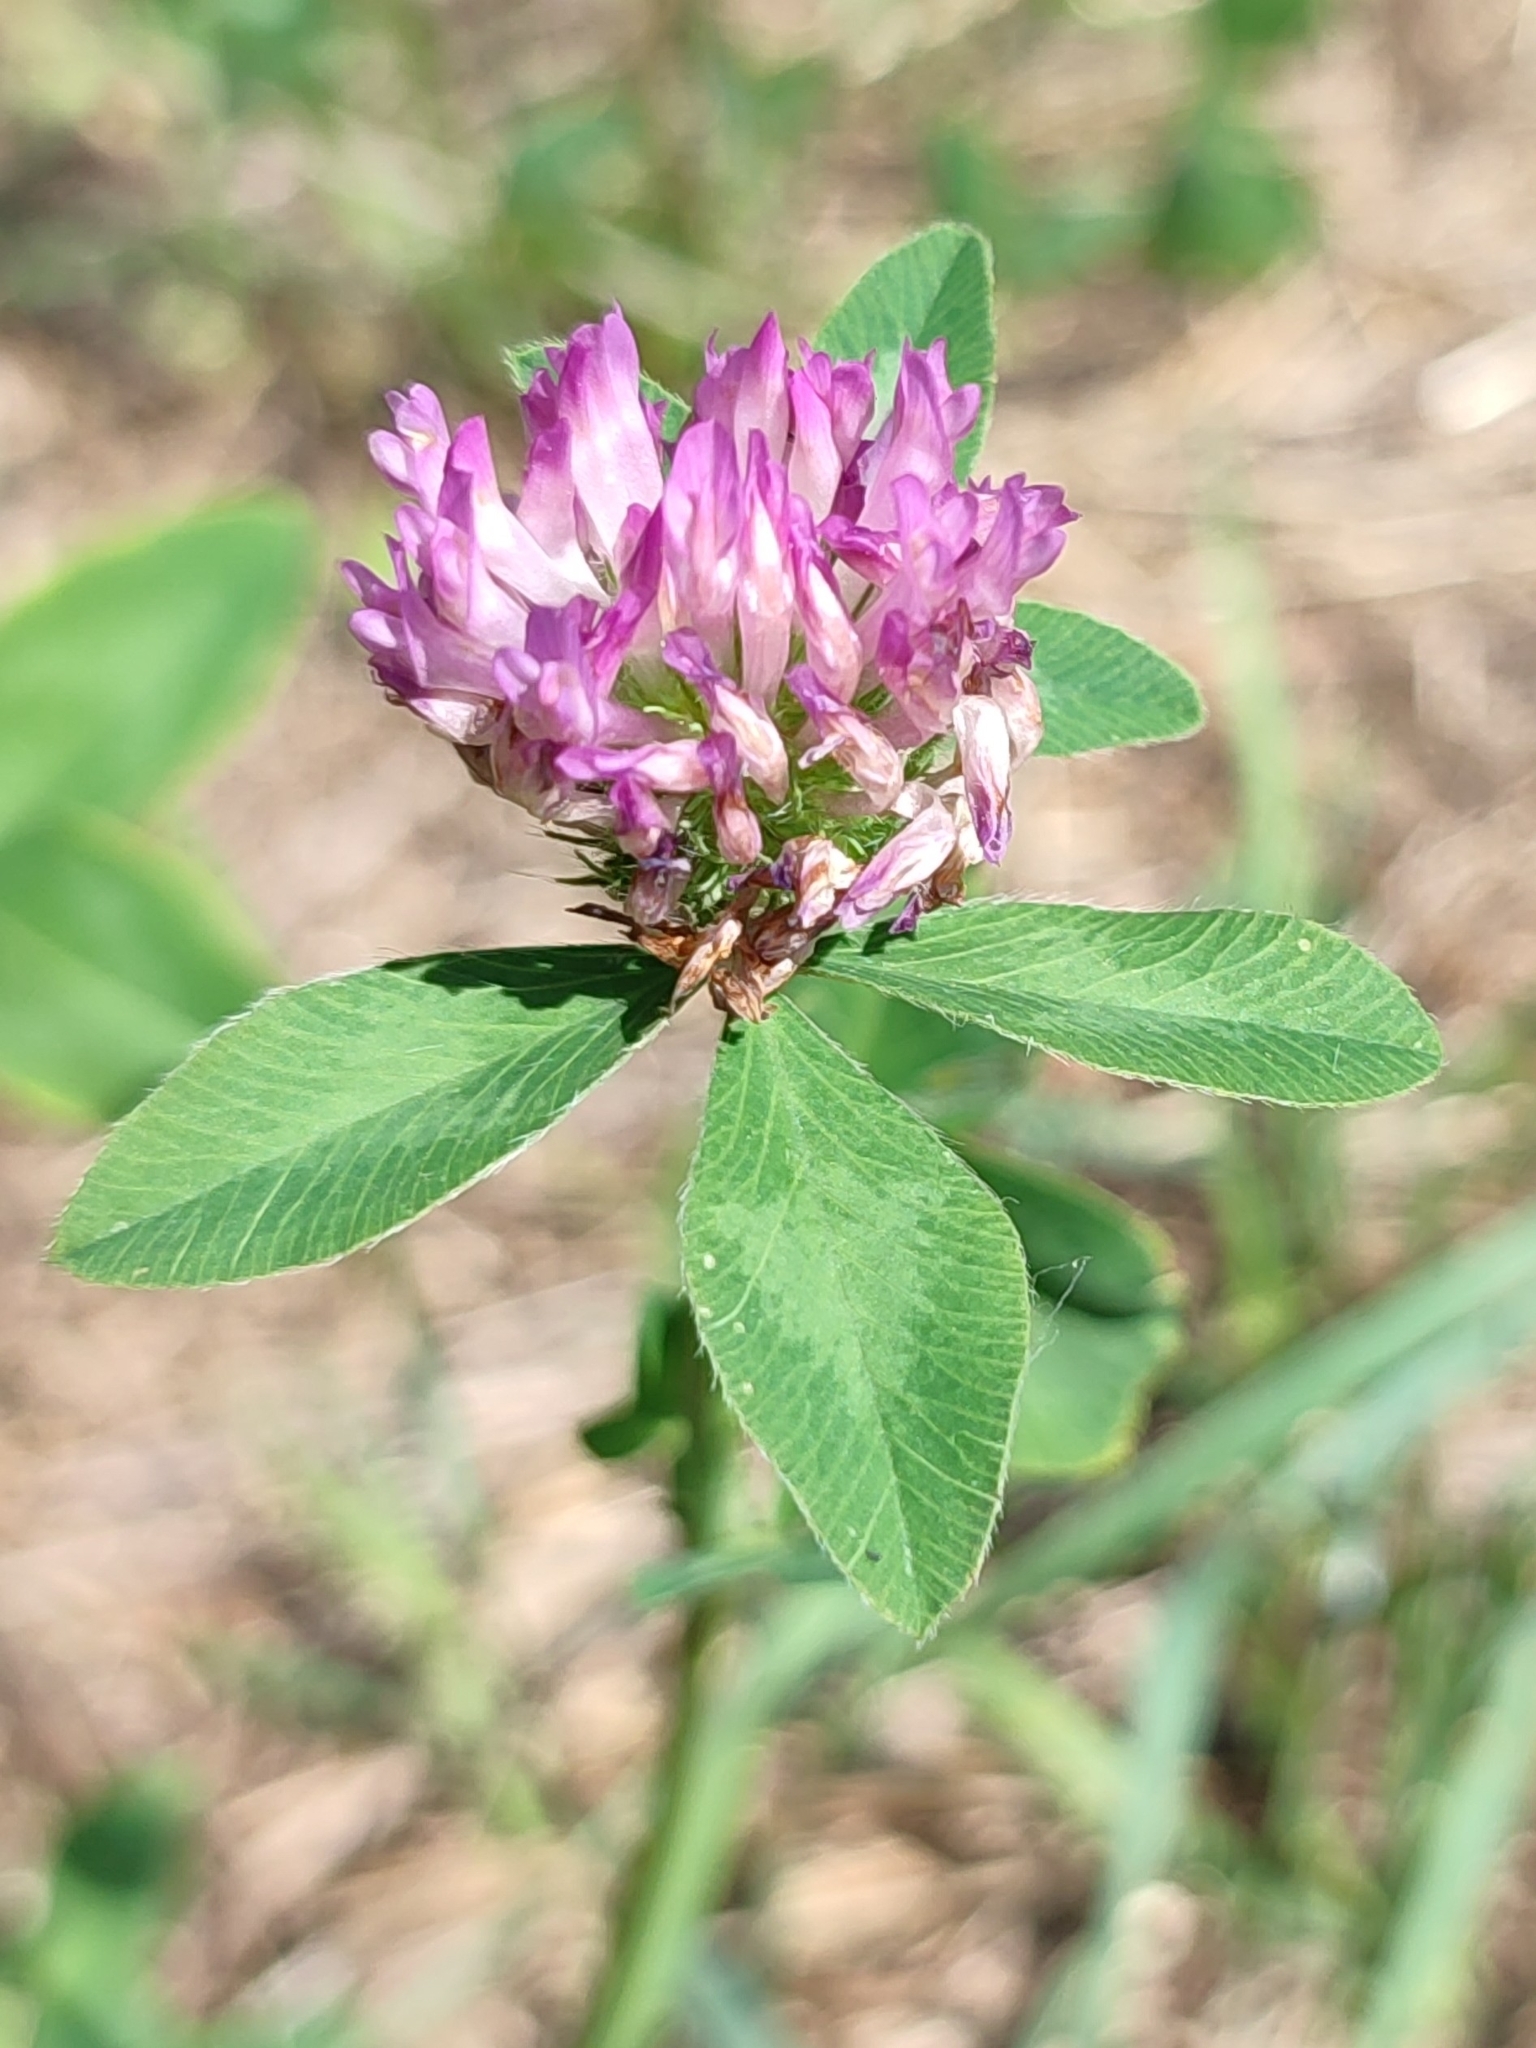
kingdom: Plantae
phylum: Tracheophyta
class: Magnoliopsida
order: Fabales
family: Fabaceae
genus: Trifolium
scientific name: Trifolium pratense
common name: Red clover
